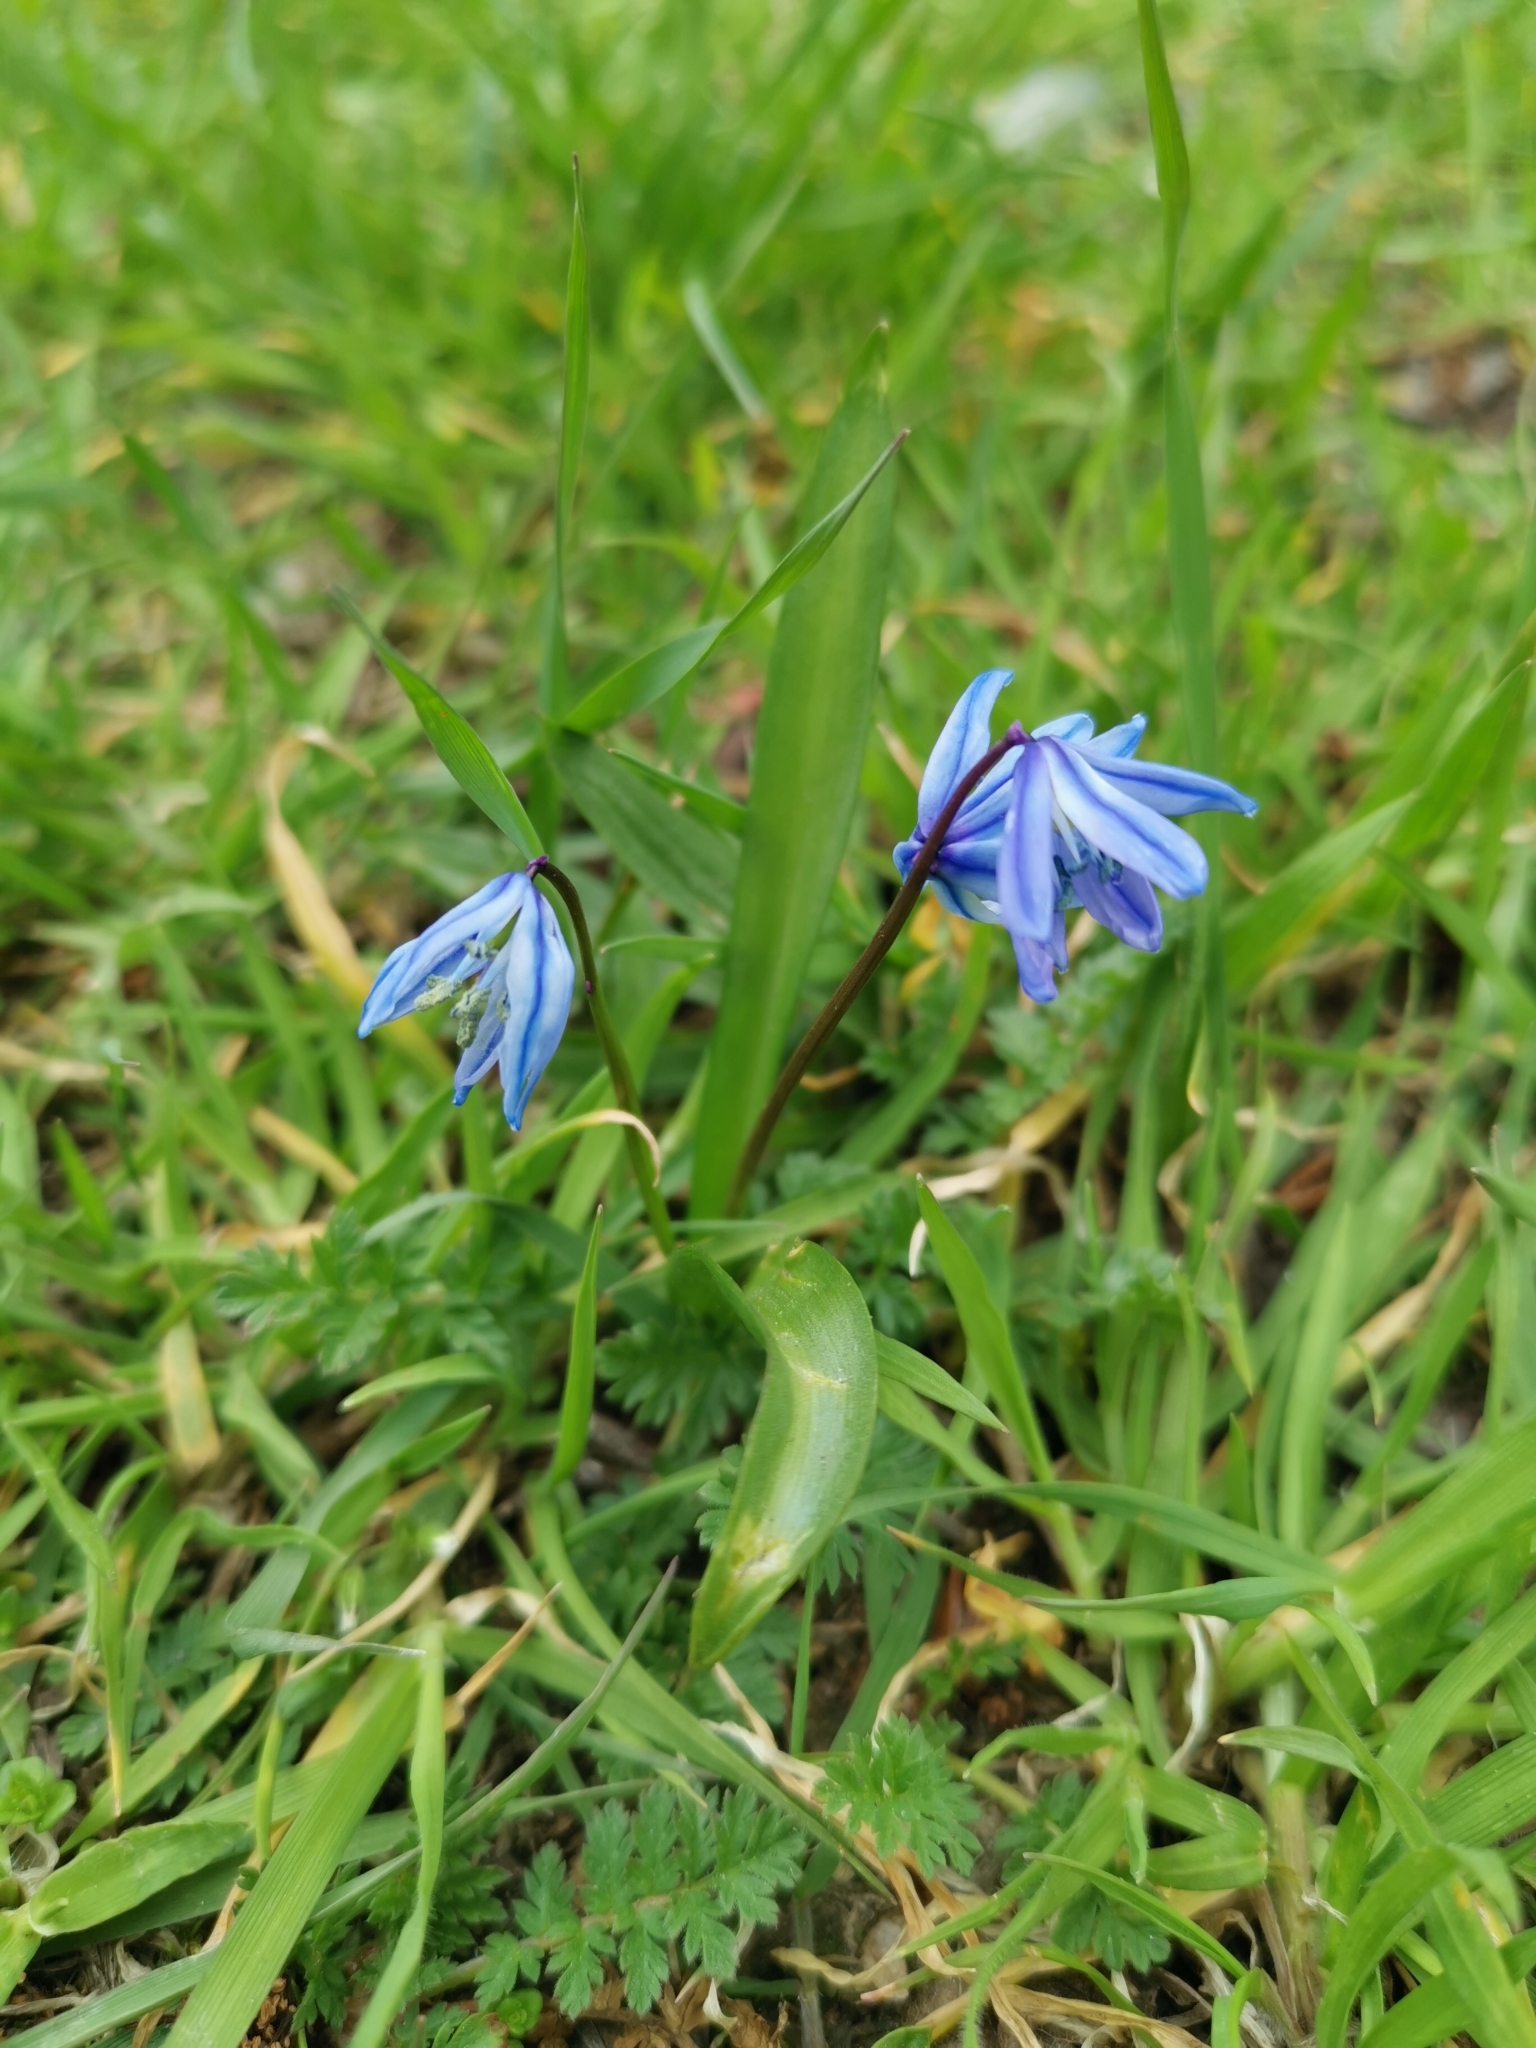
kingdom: Plantae
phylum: Tracheophyta
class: Liliopsida
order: Asparagales
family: Asparagaceae
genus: Scilla
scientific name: Scilla siberica
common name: Siberian squill
